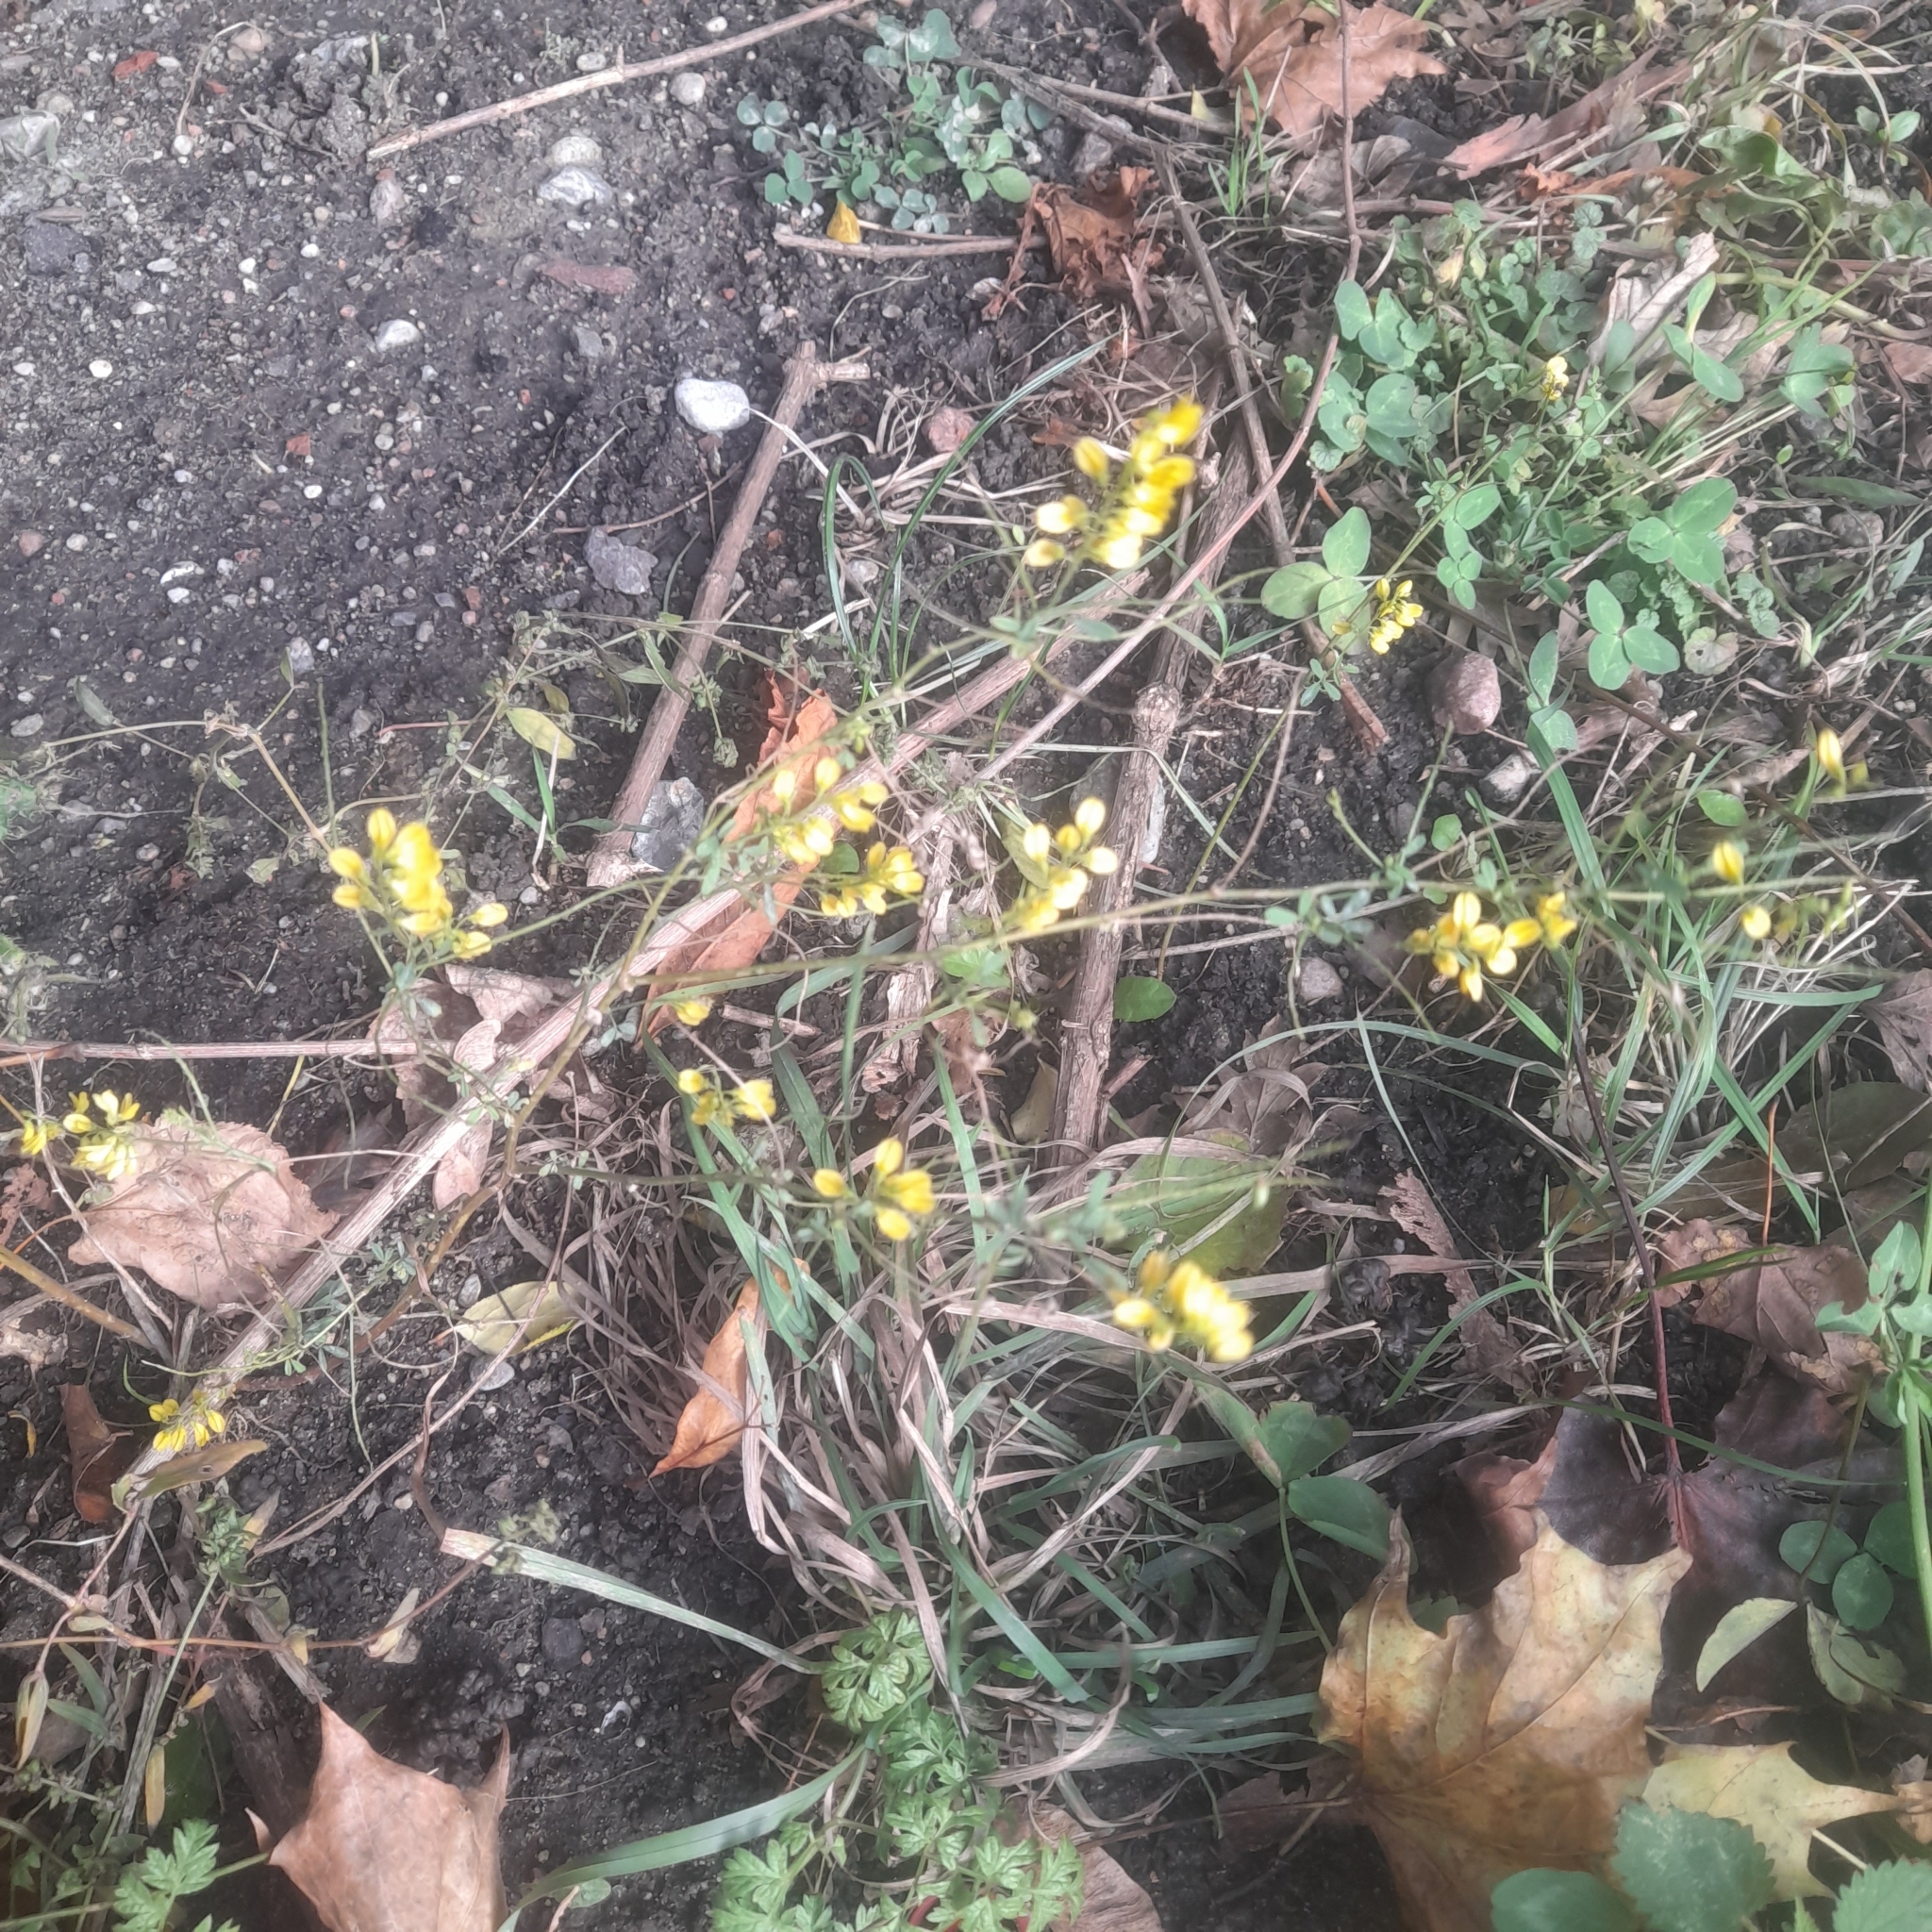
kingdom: Plantae
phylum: Tracheophyta
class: Magnoliopsida
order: Fabales
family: Fabaceae
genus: Melilotus
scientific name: Melilotus officinalis
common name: Sweetclover
